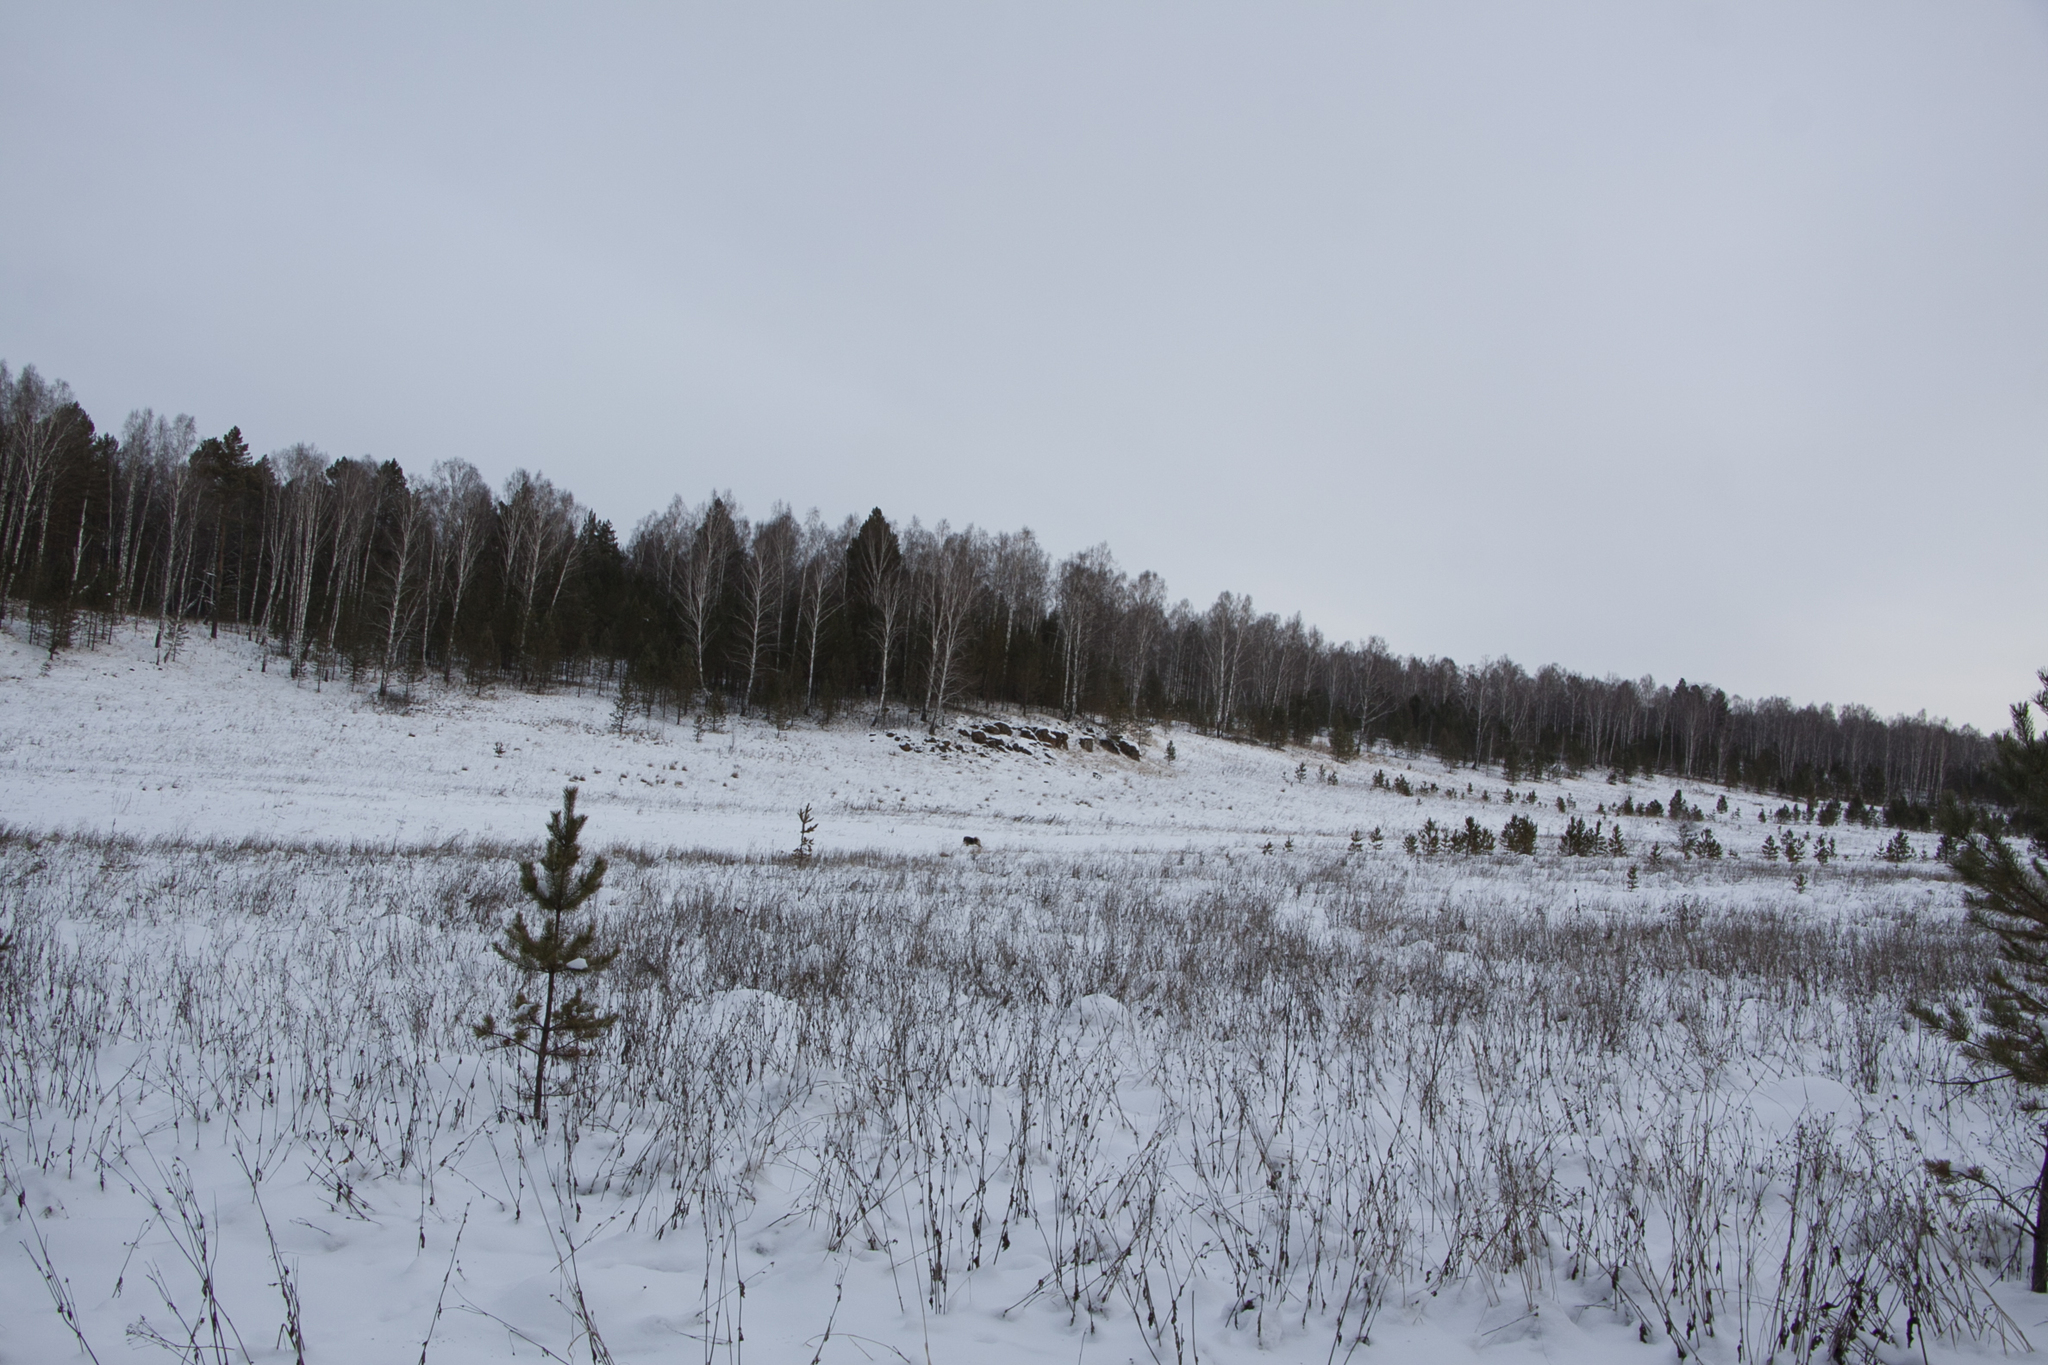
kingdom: Plantae
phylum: Tracheophyta
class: Pinopsida
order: Pinales
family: Pinaceae
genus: Pinus
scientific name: Pinus sylvestris
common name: Scots pine
